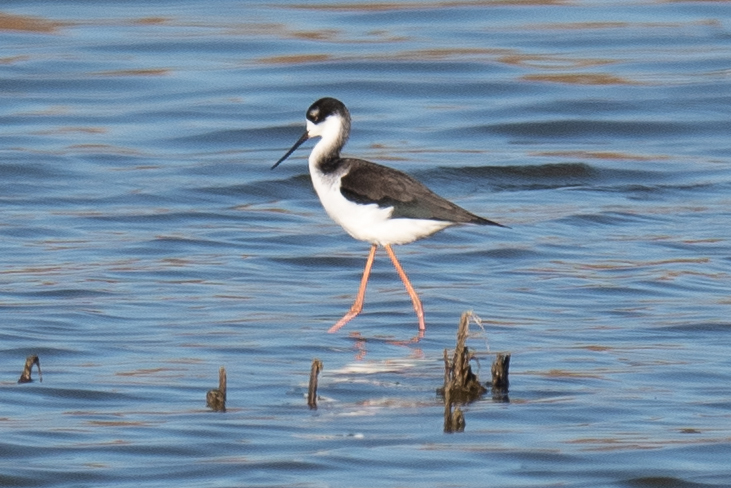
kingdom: Animalia
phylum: Chordata
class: Aves
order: Charadriiformes
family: Recurvirostridae
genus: Himantopus
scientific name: Himantopus mexicanus
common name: Black-necked stilt
